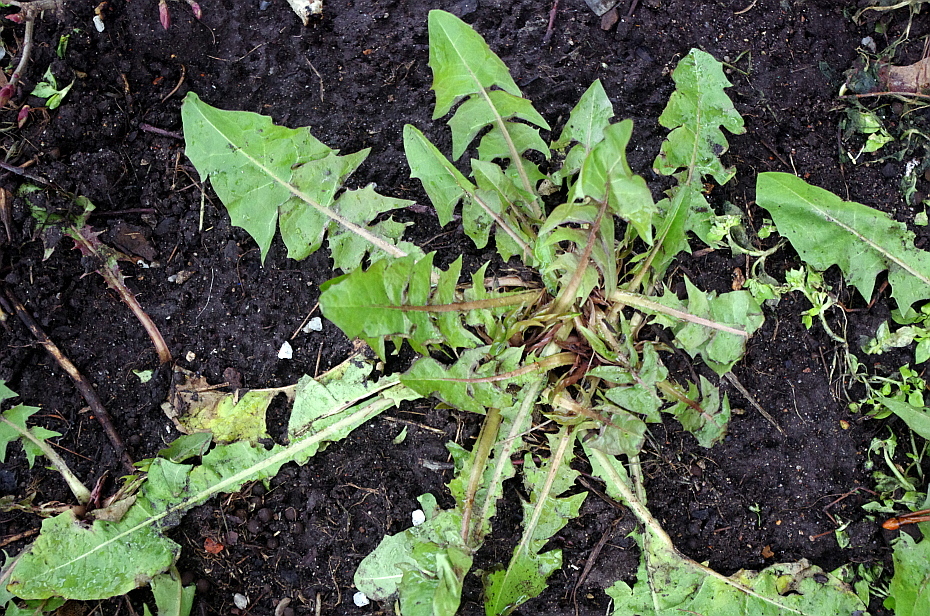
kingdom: Plantae
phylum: Tracheophyta
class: Magnoliopsida
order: Asterales
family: Asteraceae
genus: Taraxacum
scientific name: Taraxacum officinale
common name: Common dandelion
